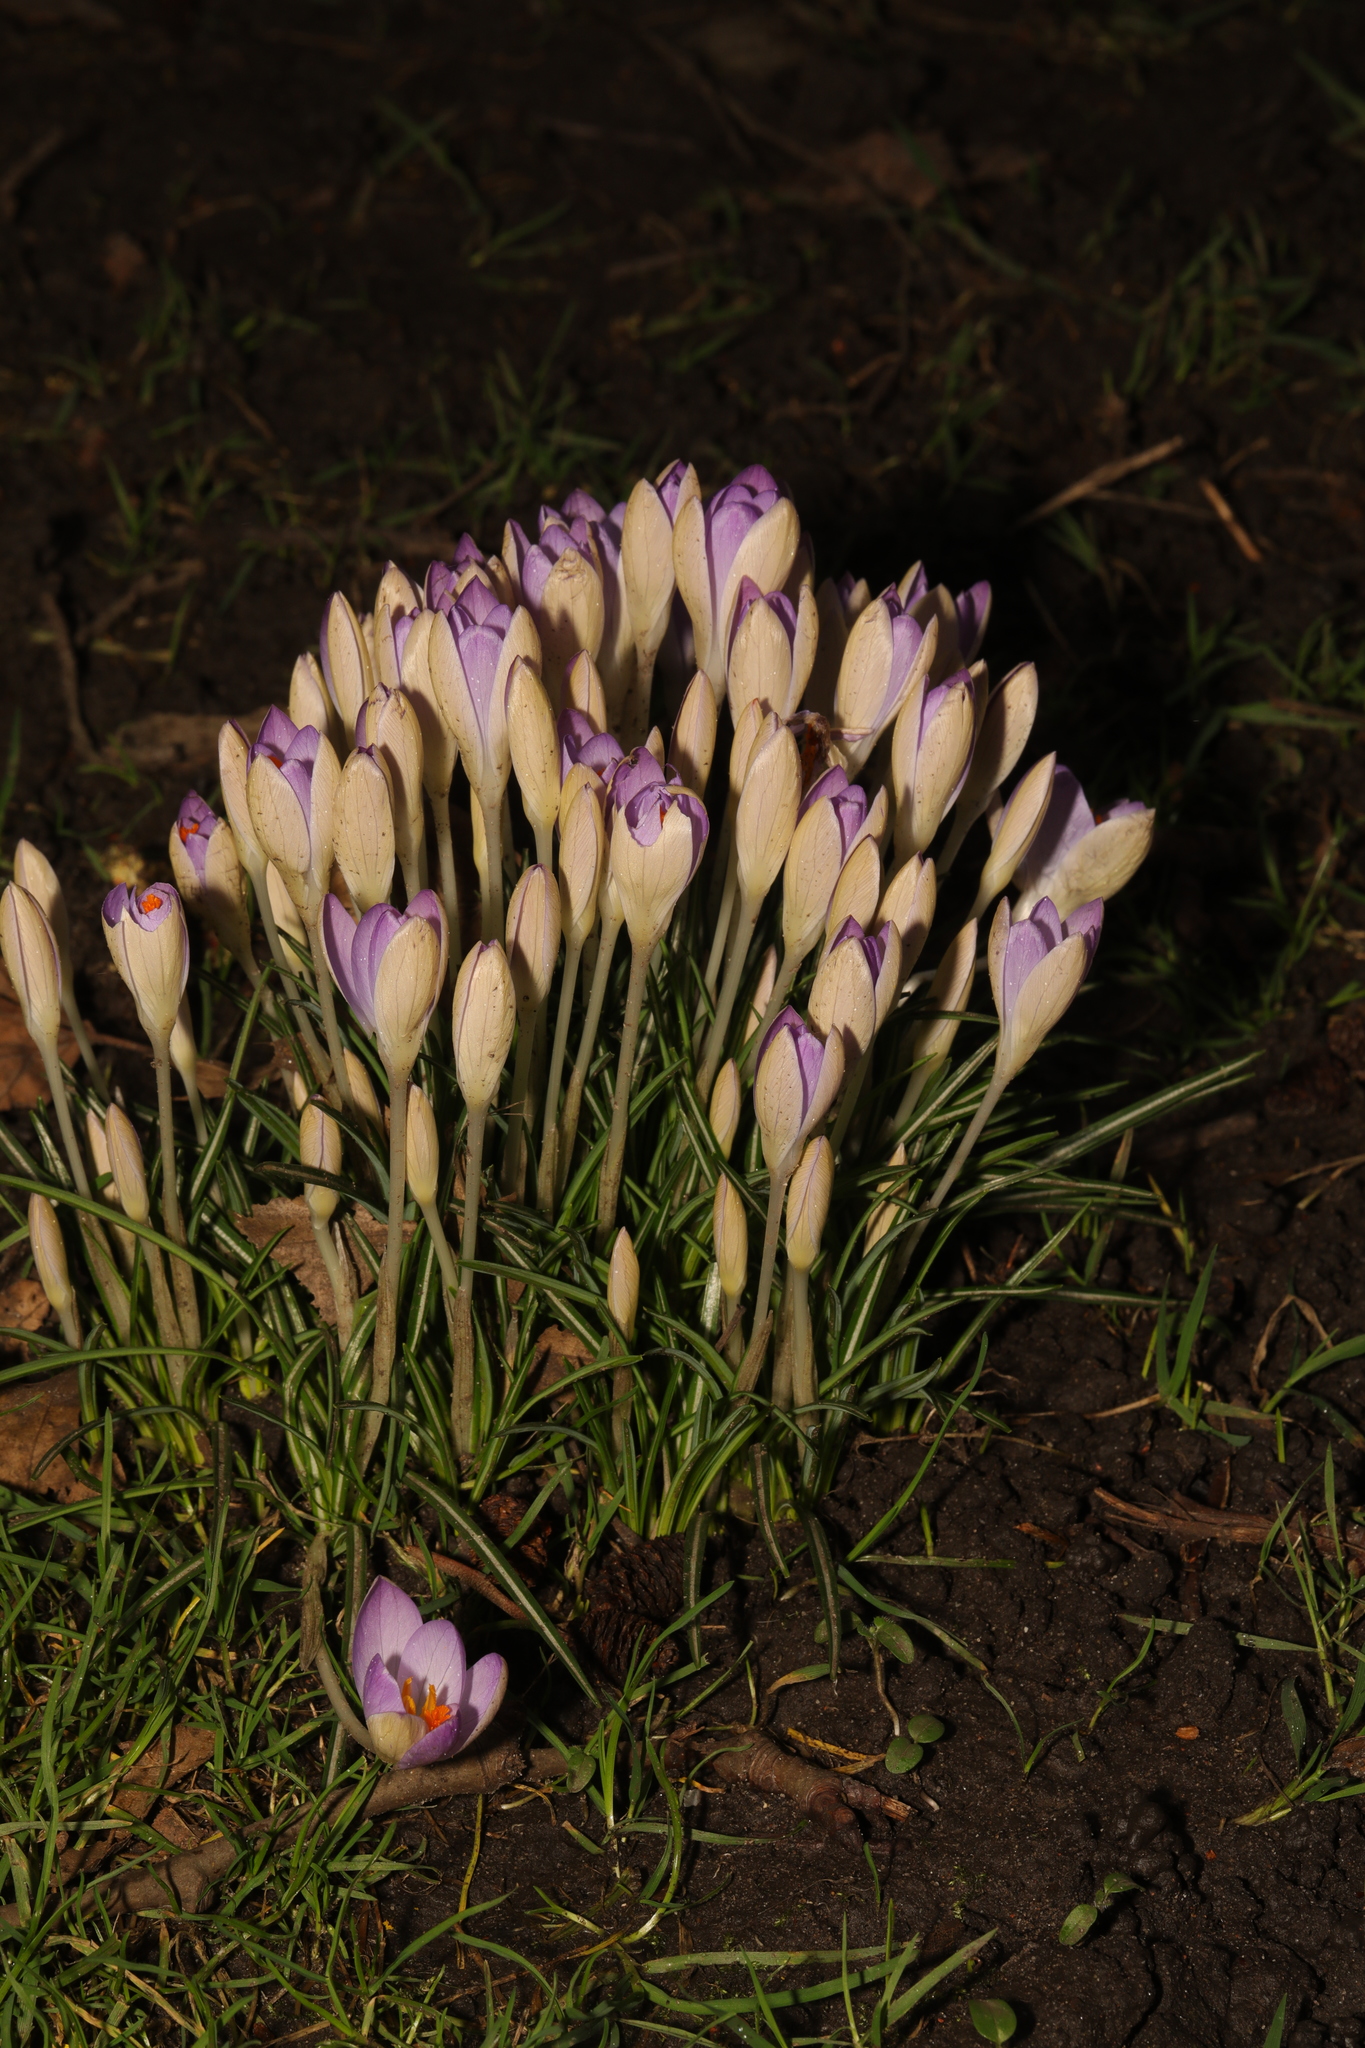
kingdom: Plantae
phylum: Tracheophyta
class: Liliopsida
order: Asparagales
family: Iridaceae
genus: Crocus
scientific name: Crocus tommasinianus
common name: Early crocus
